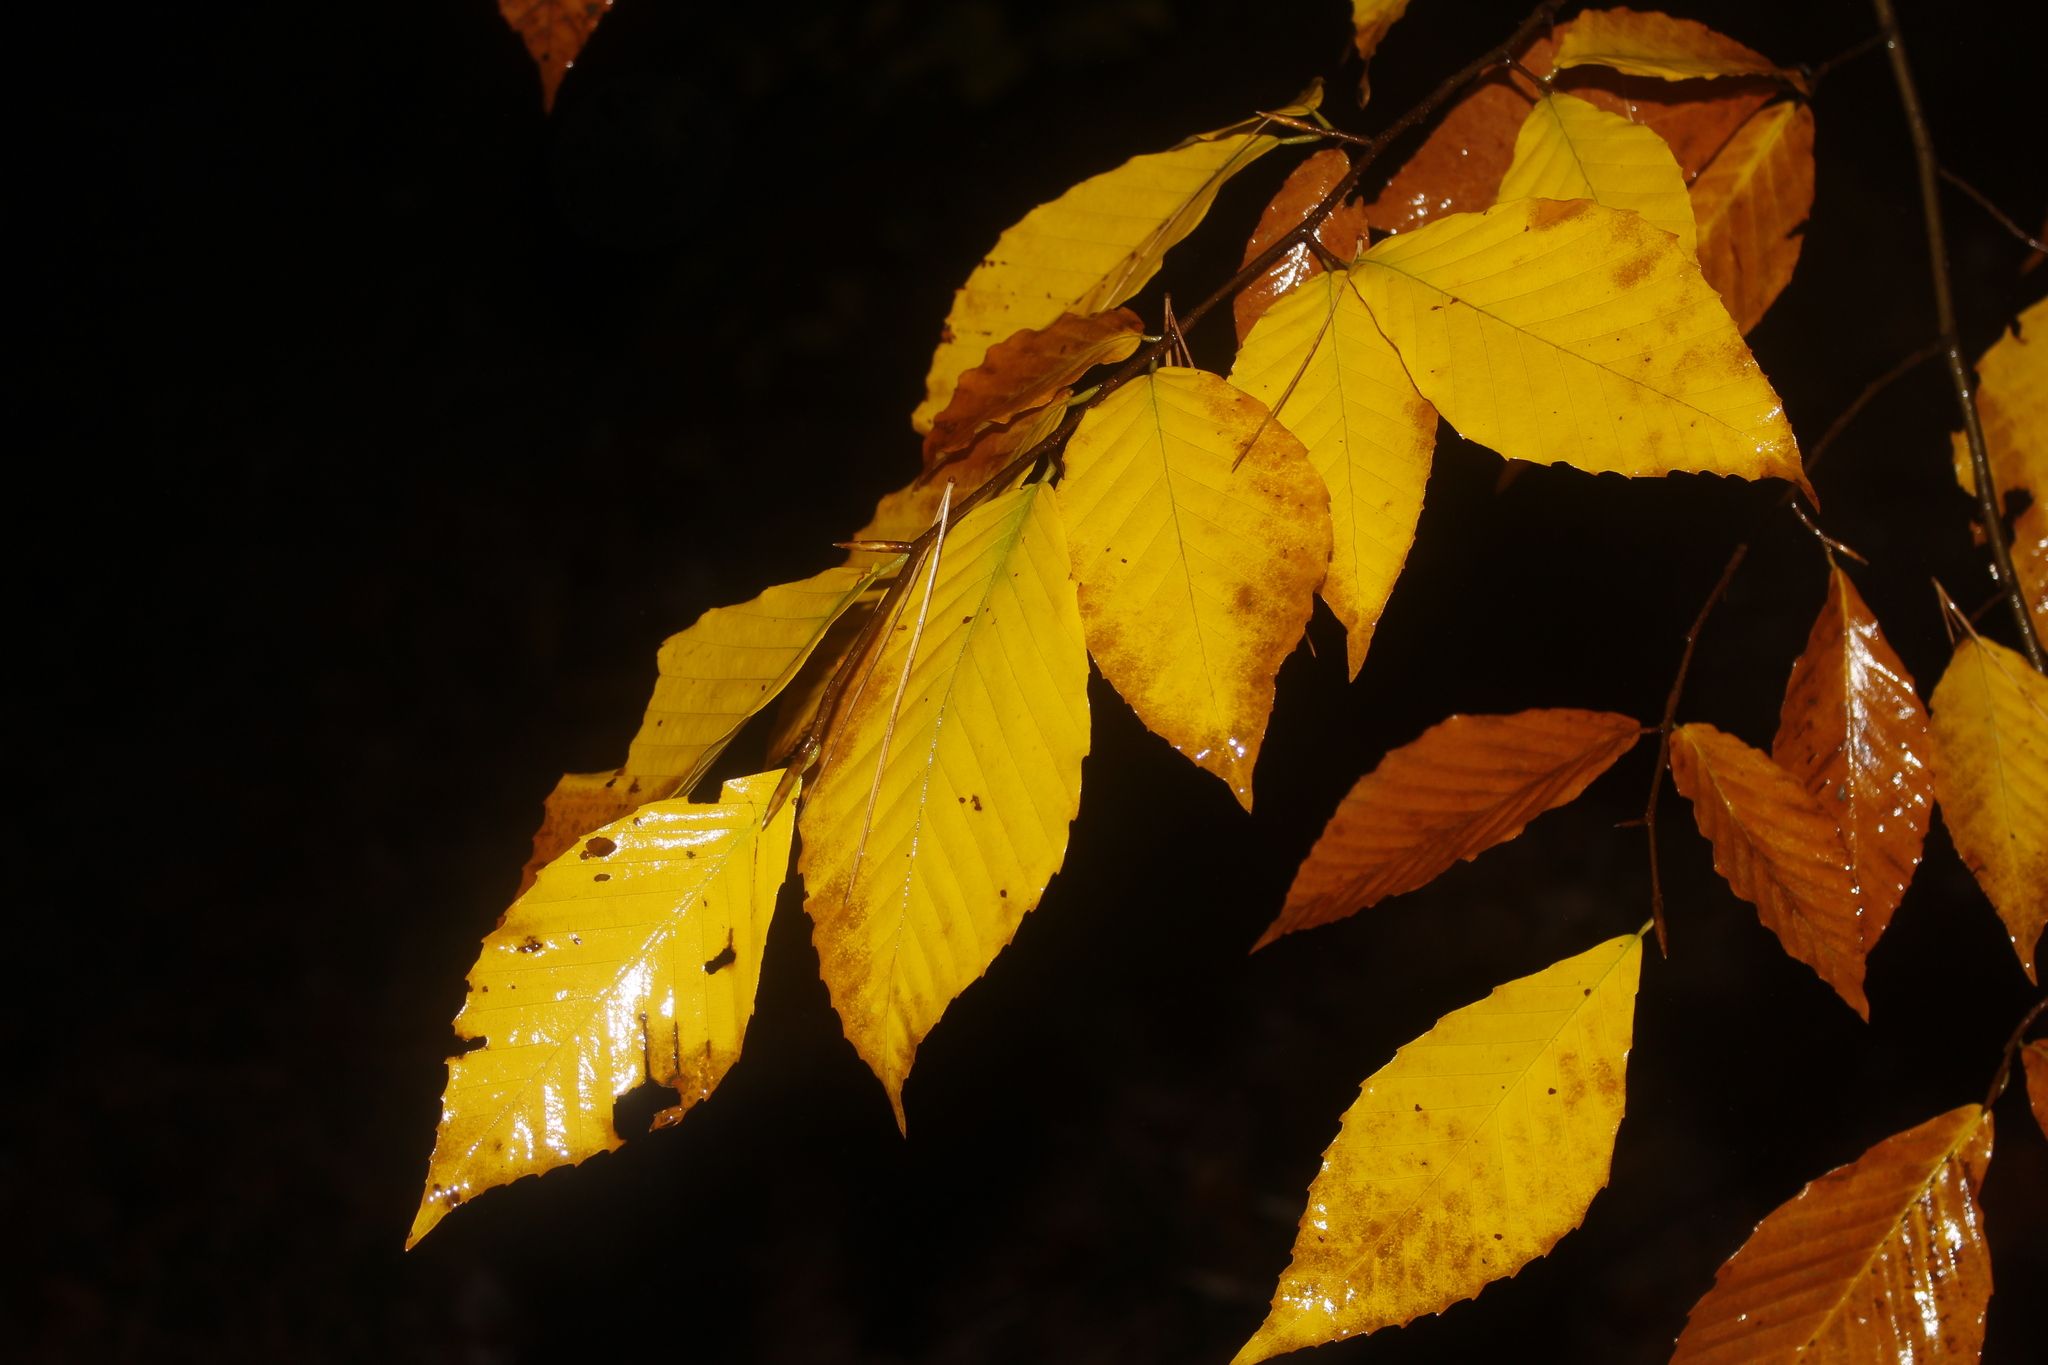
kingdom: Plantae
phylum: Tracheophyta
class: Magnoliopsida
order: Fagales
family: Fagaceae
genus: Fagus
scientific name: Fagus grandifolia
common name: American beech
